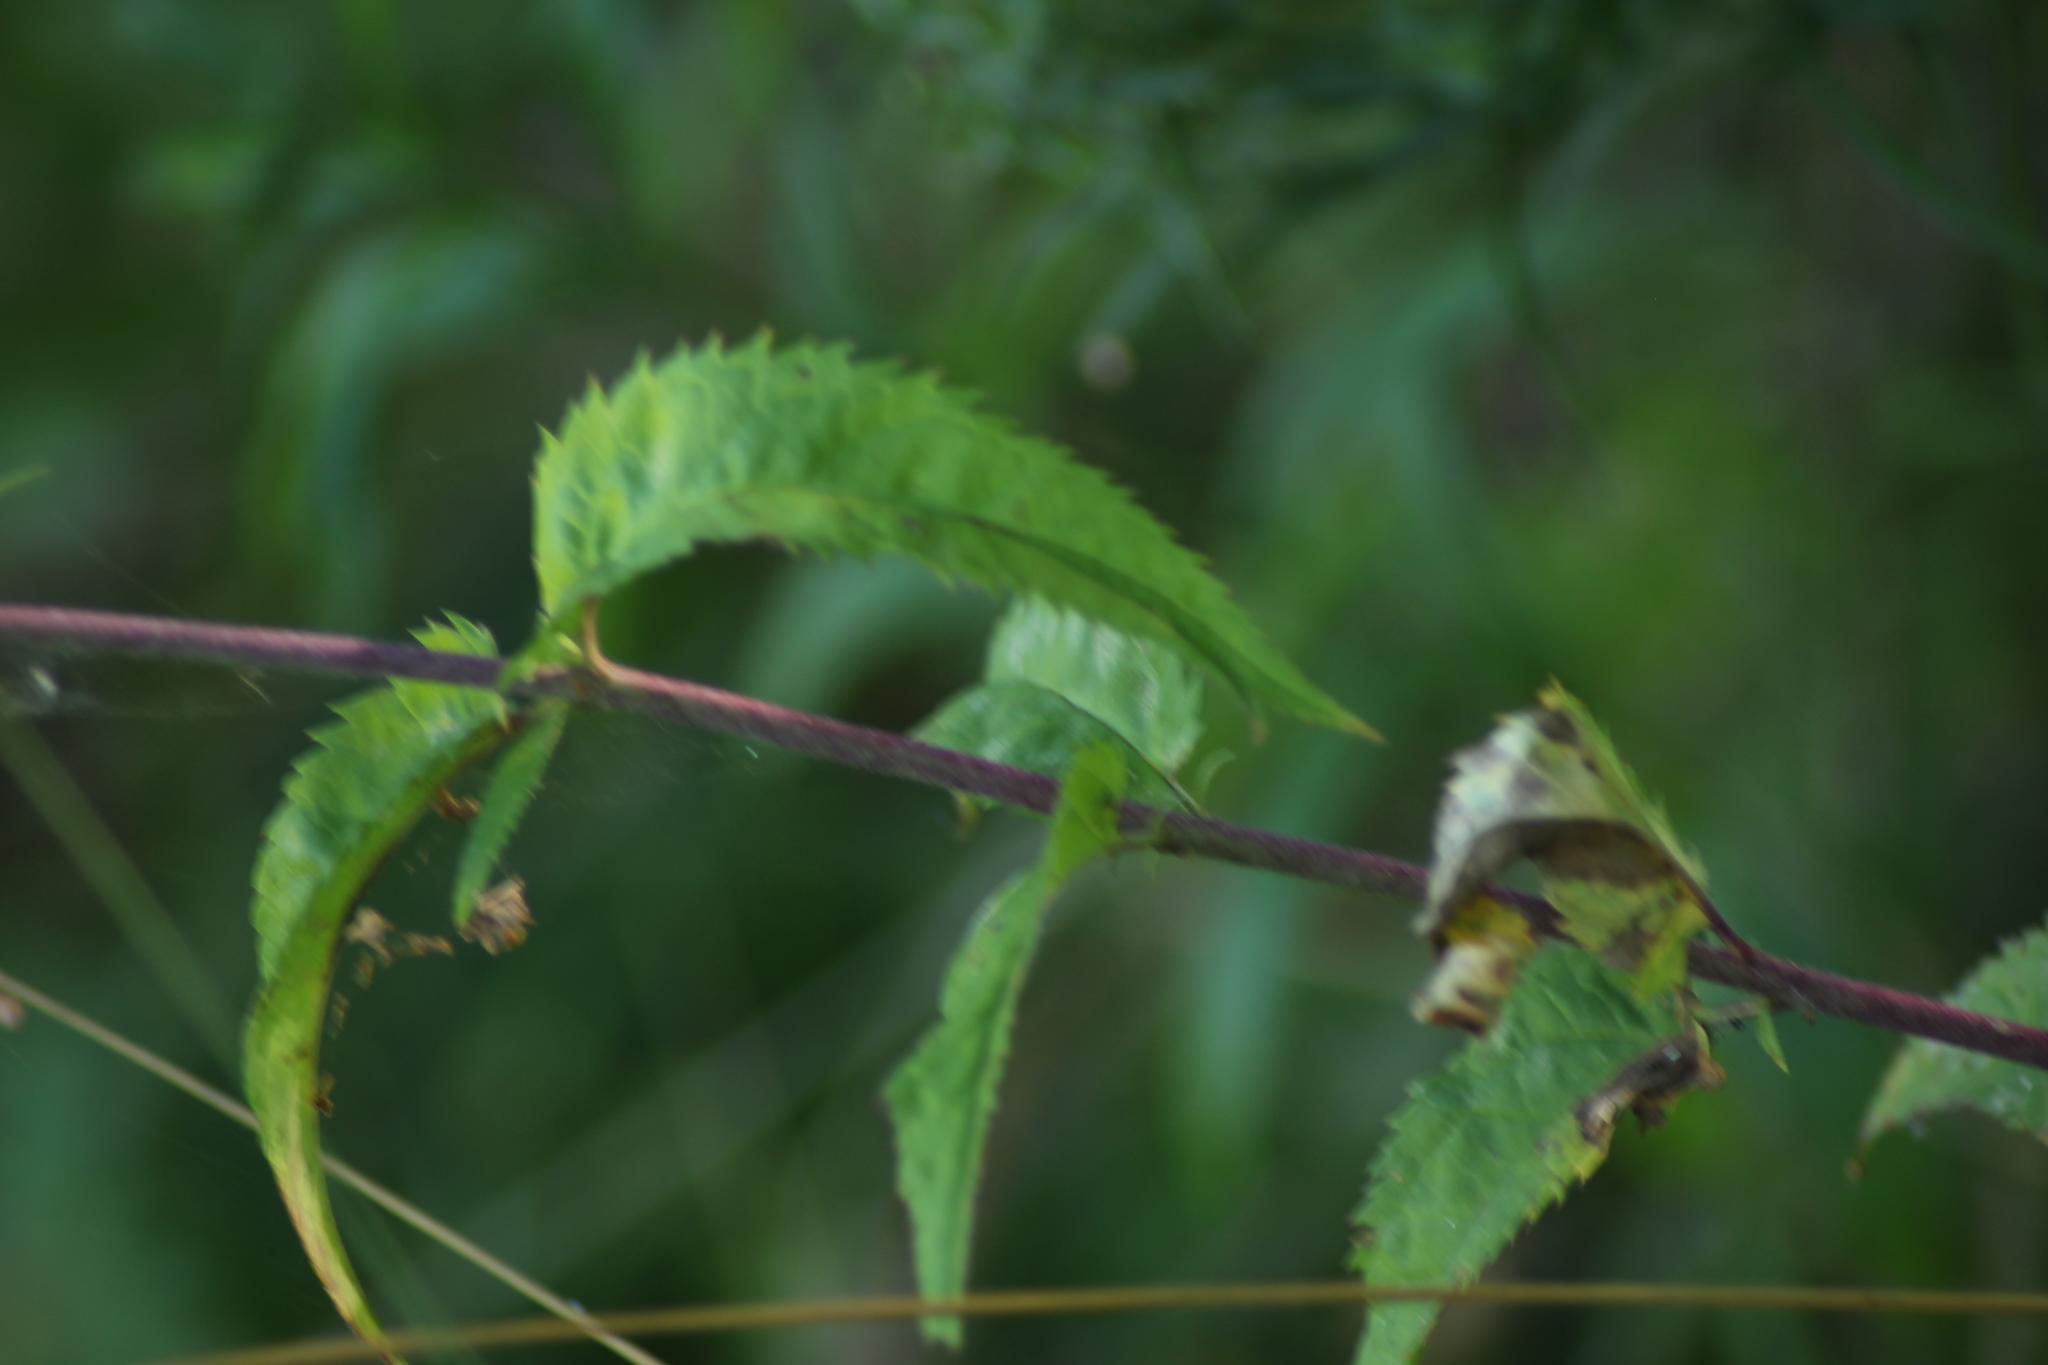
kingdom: Plantae
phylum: Tracheophyta
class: Magnoliopsida
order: Lamiales
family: Plantaginaceae
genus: Veronica
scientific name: Veronica longifolia
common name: Garden speedwell
